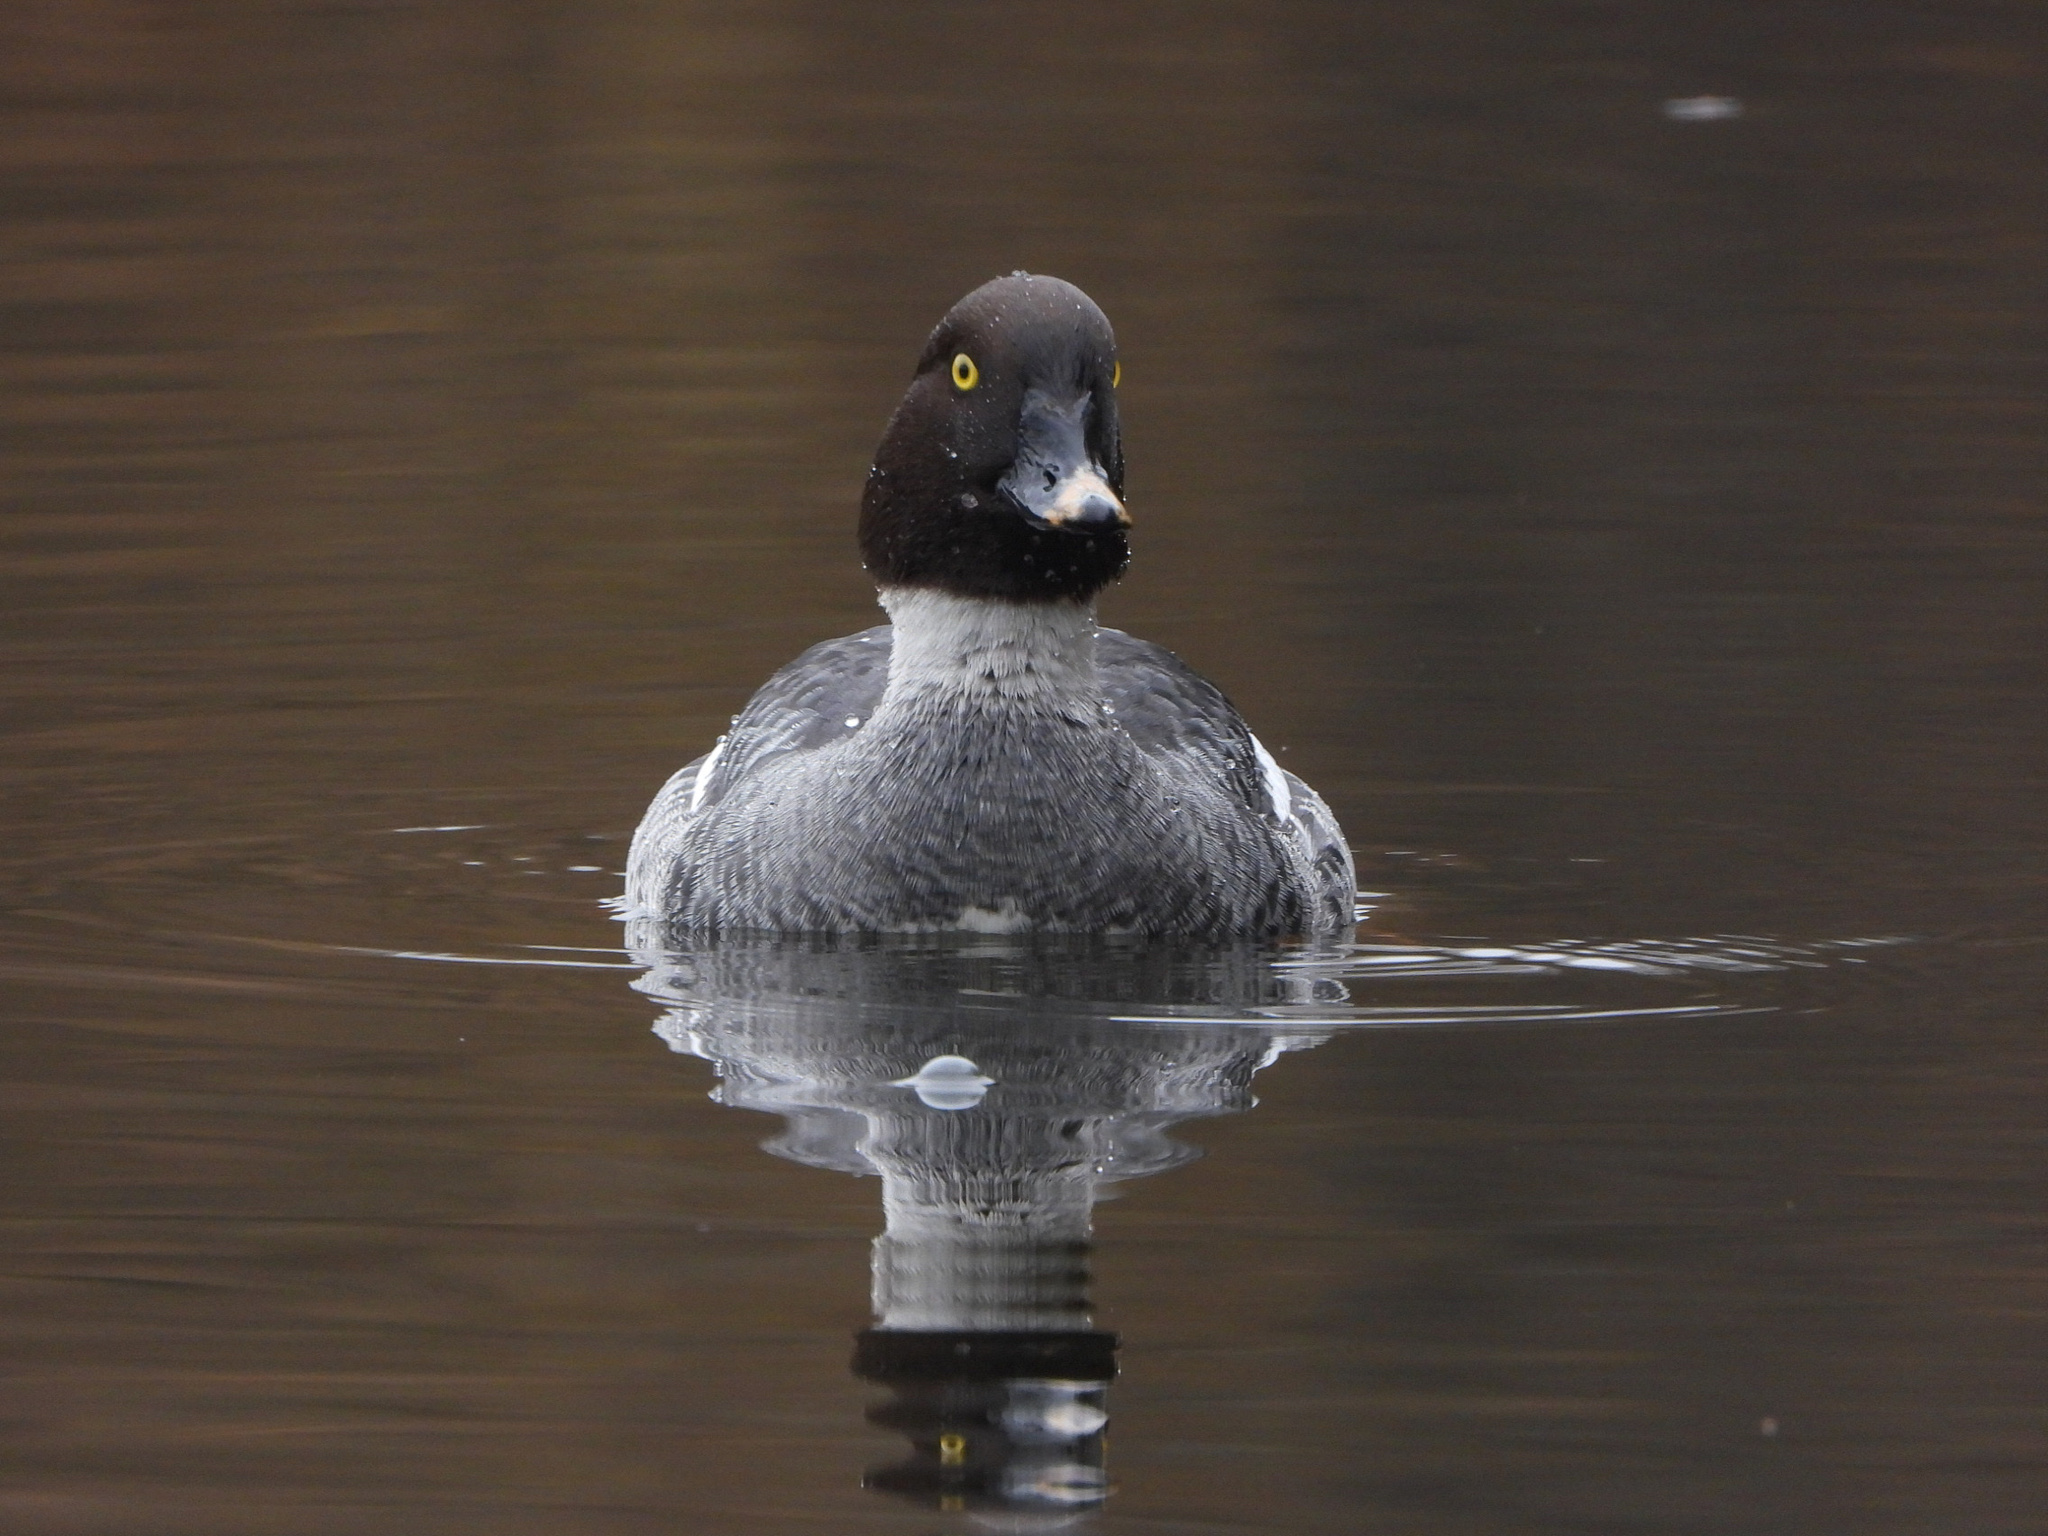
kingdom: Animalia
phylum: Chordata
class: Aves
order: Anseriformes
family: Anatidae
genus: Bucephala
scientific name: Bucephala clangula
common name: Common goldeneye
